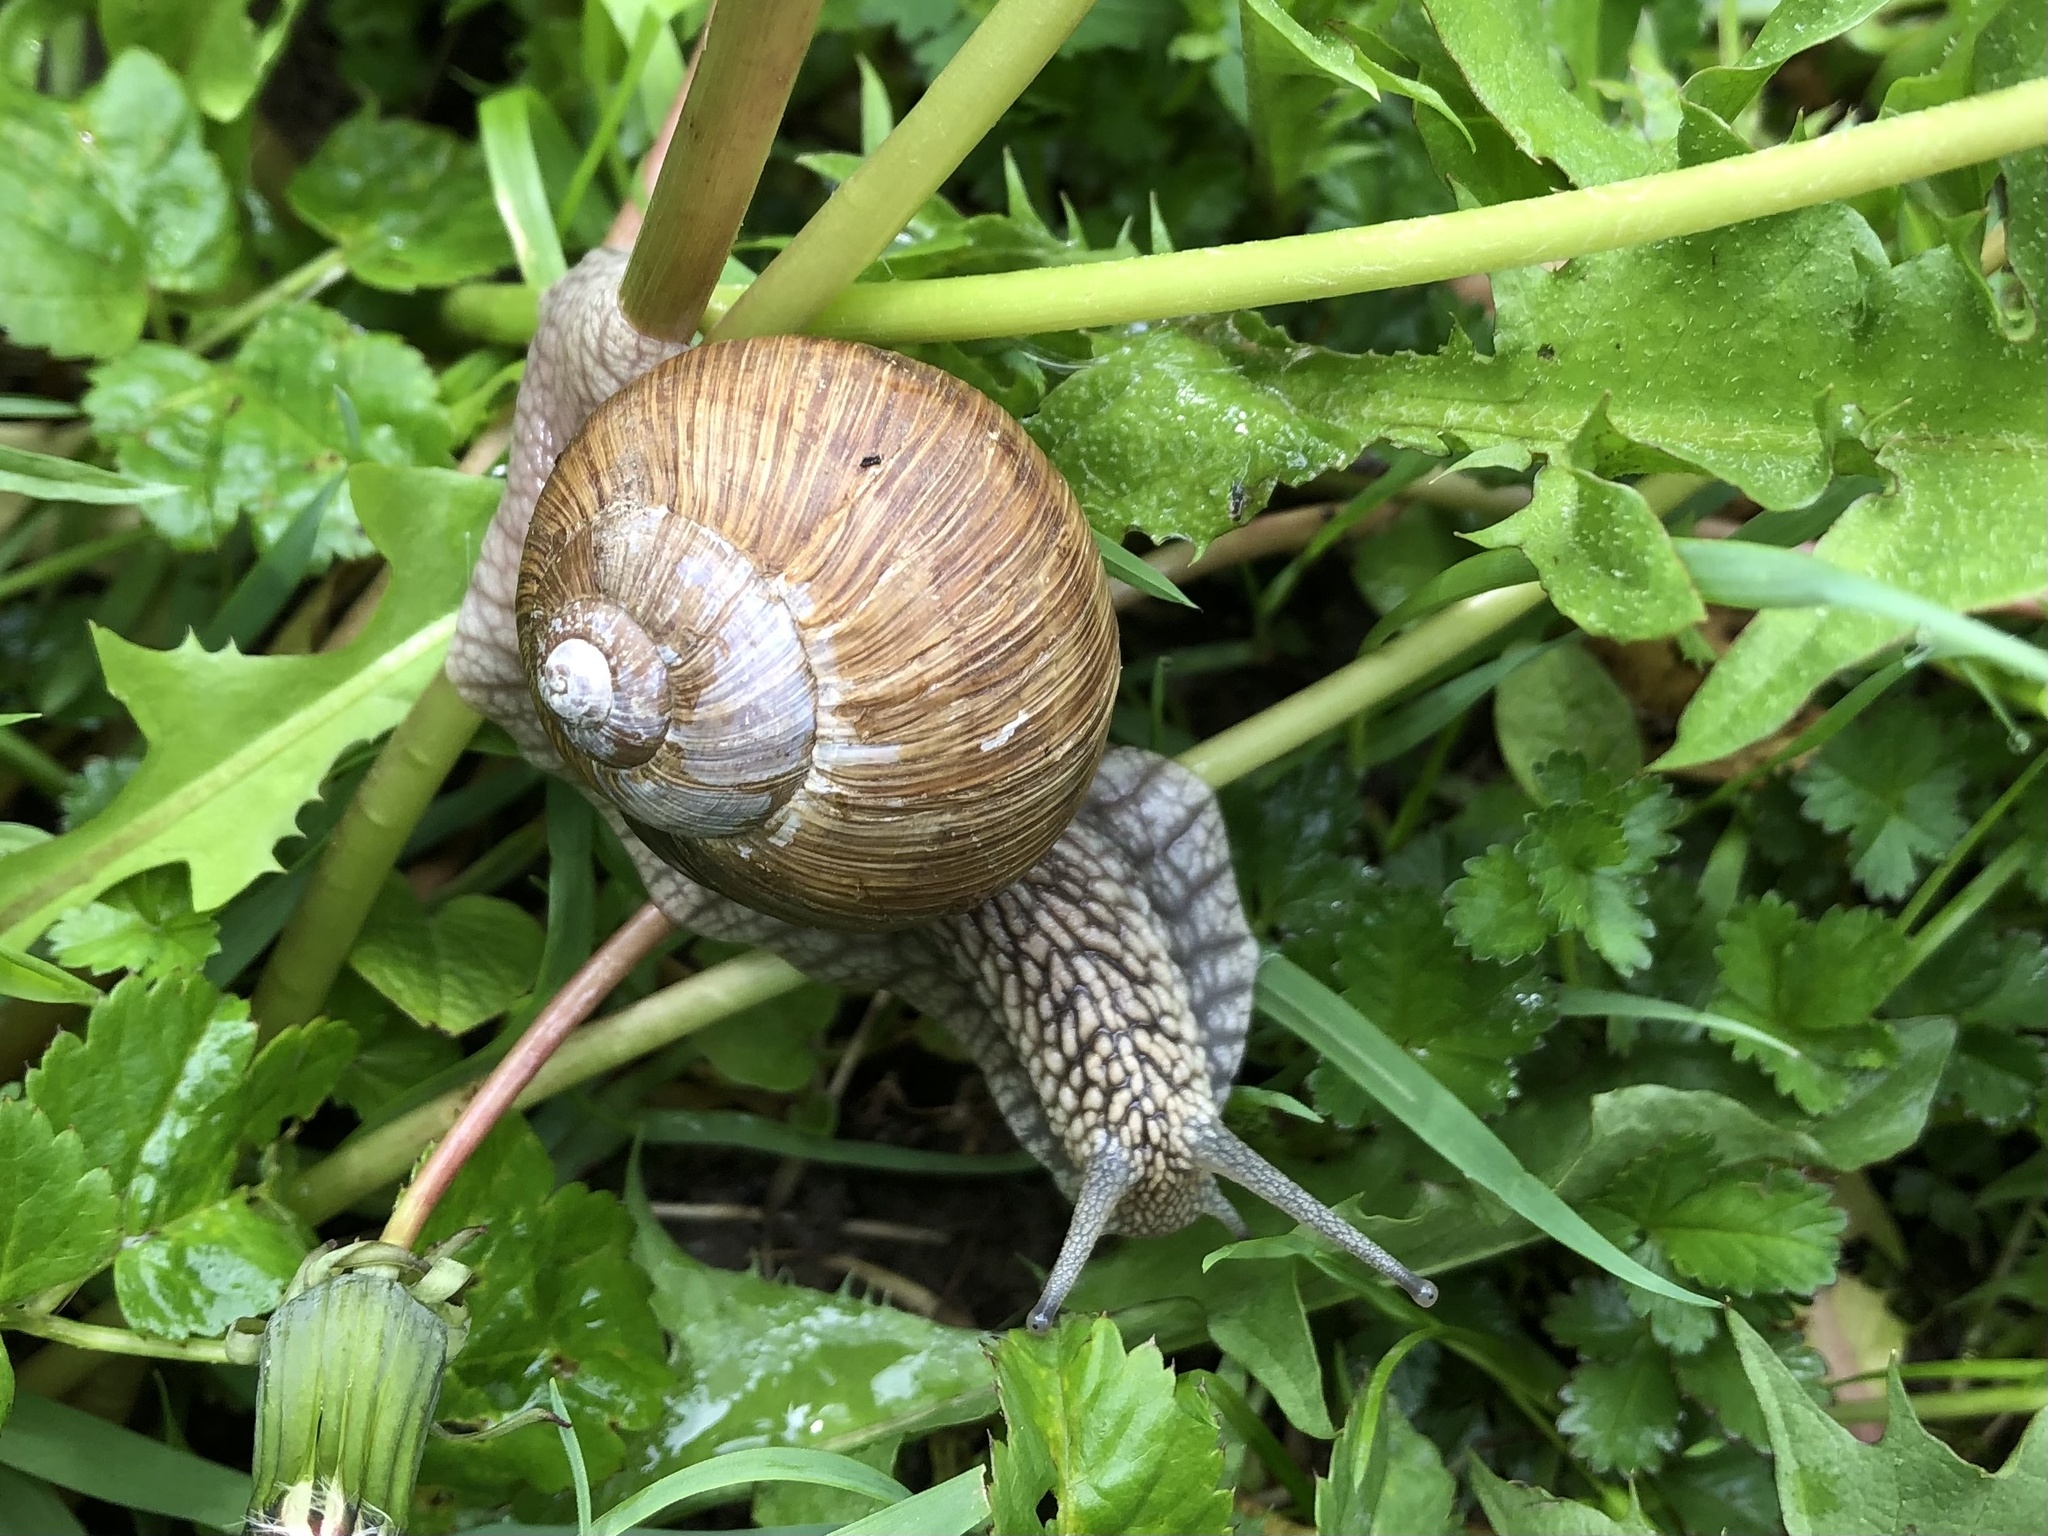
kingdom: Animalia
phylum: Mollusca
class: Gastropoda
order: Stylommatophora
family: Helicidae
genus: Helix
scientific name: Helix pomatia
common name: Roman snail
